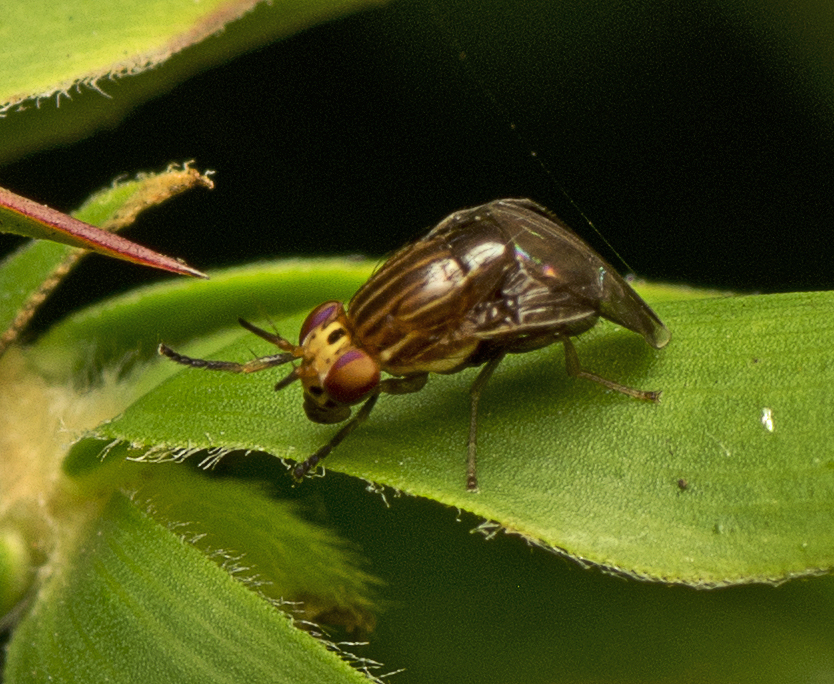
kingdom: Animalia
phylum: Arthropoda
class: Insecta
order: Diptera
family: Lauxaniidae
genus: Steganopsis
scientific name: Steganopsis melanogaster
